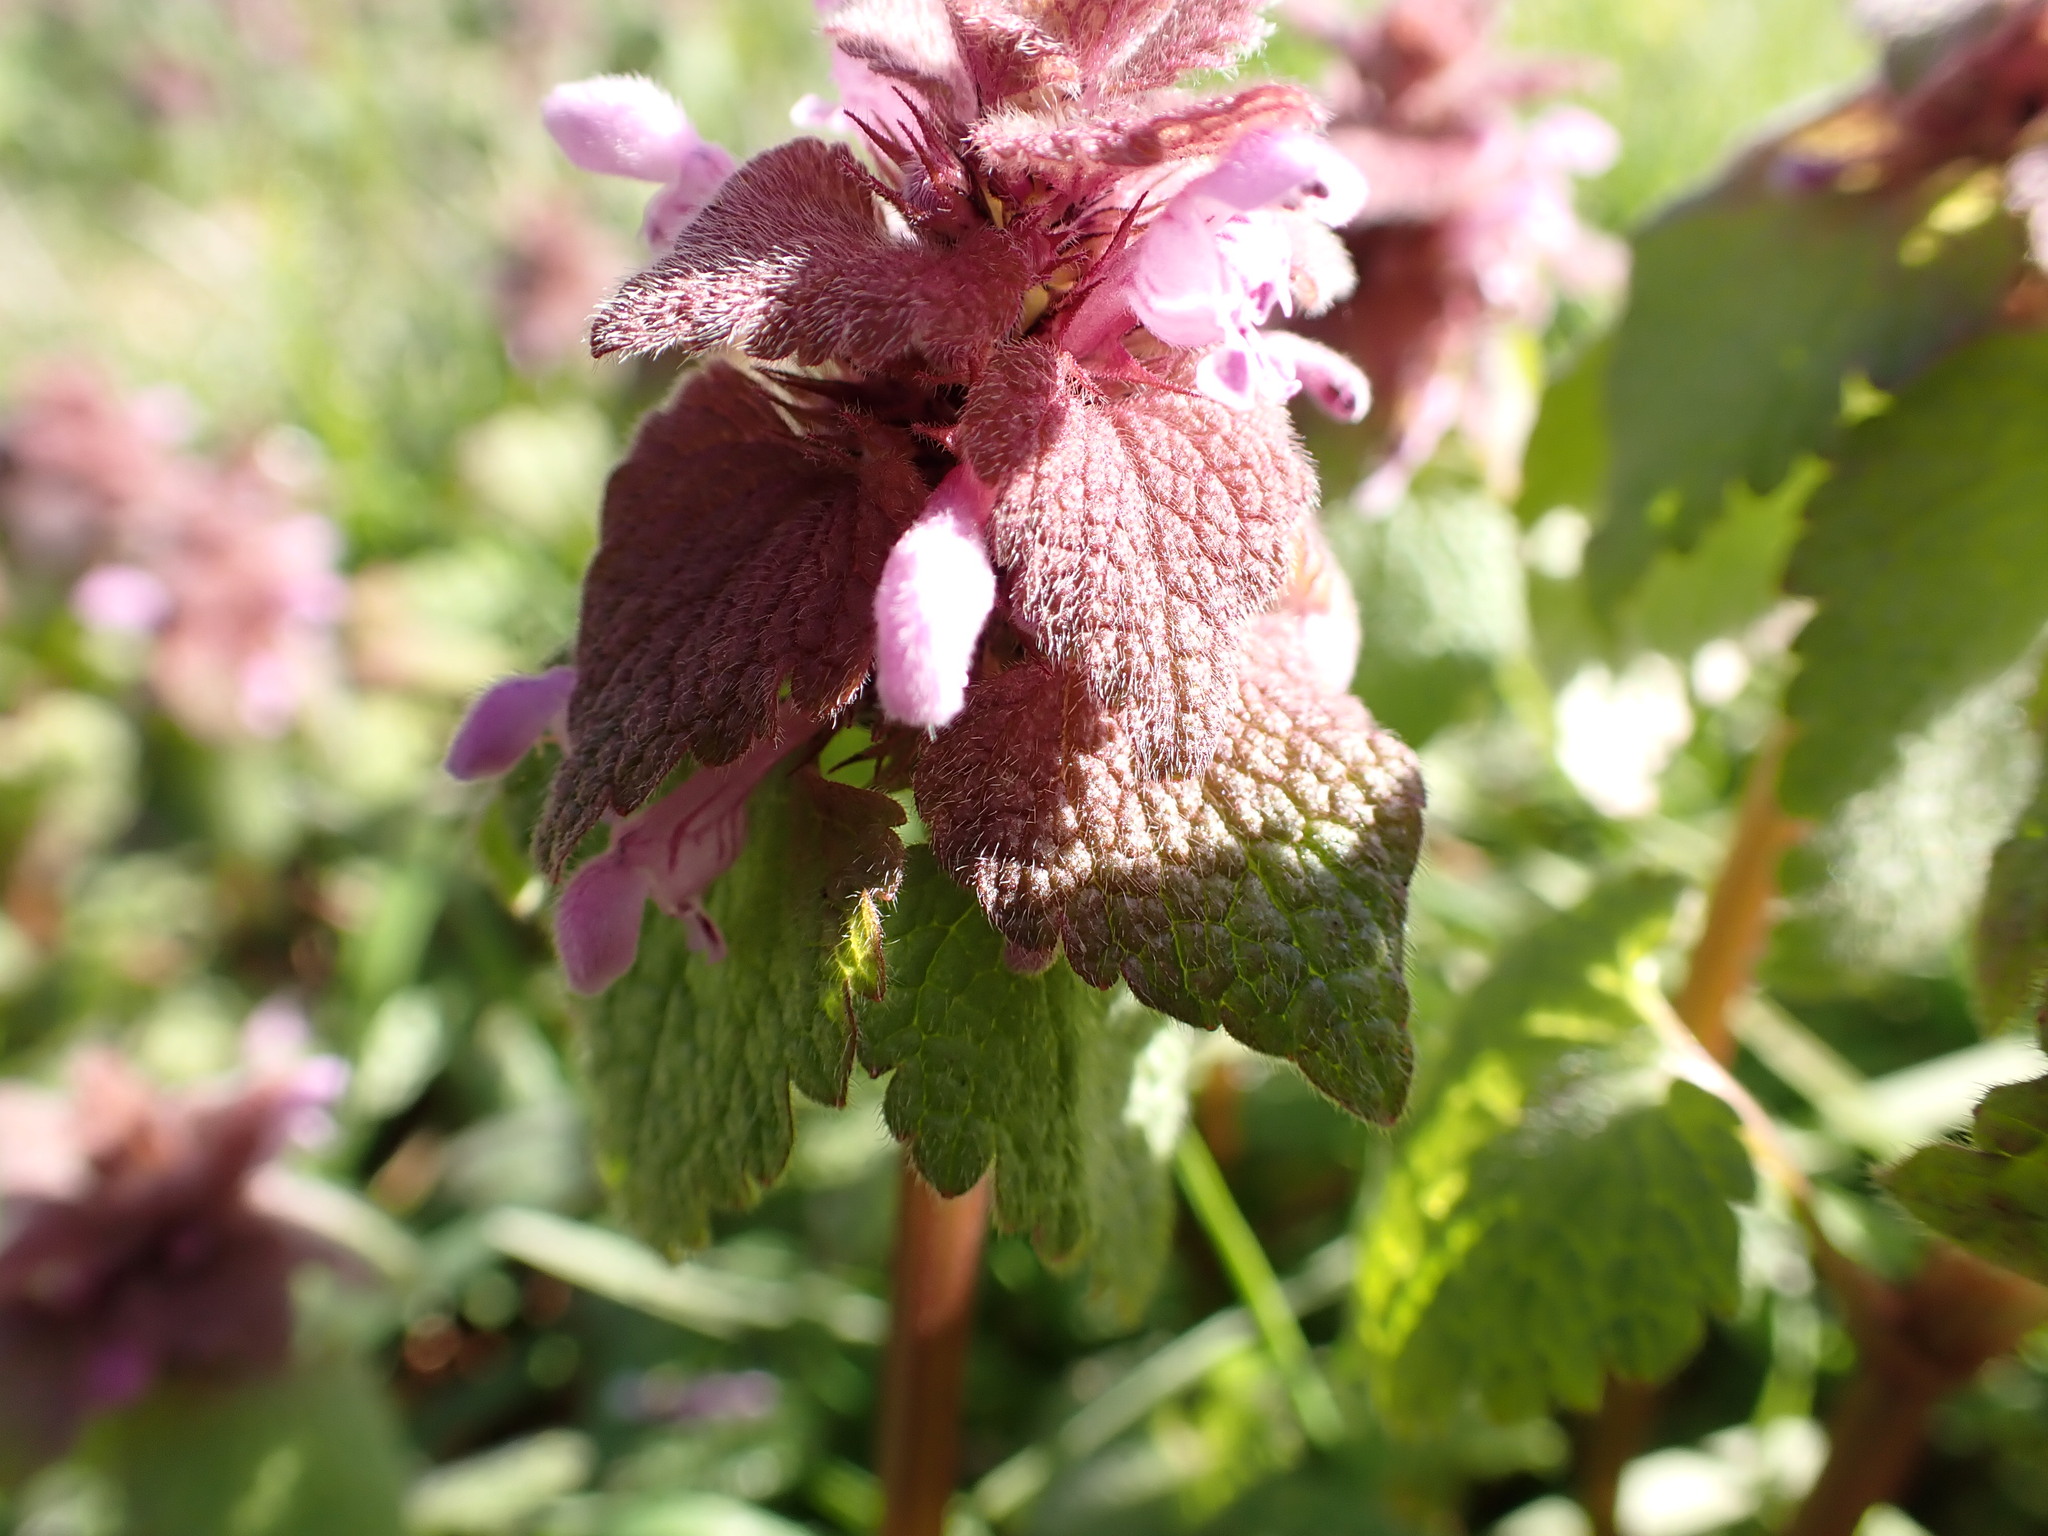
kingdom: Plantae
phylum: Tracheophyta
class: Magnoliopsida
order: Lamiales
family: Lamiaceae
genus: Lamium
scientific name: Lamium purpureum
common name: Red dead-nettle
